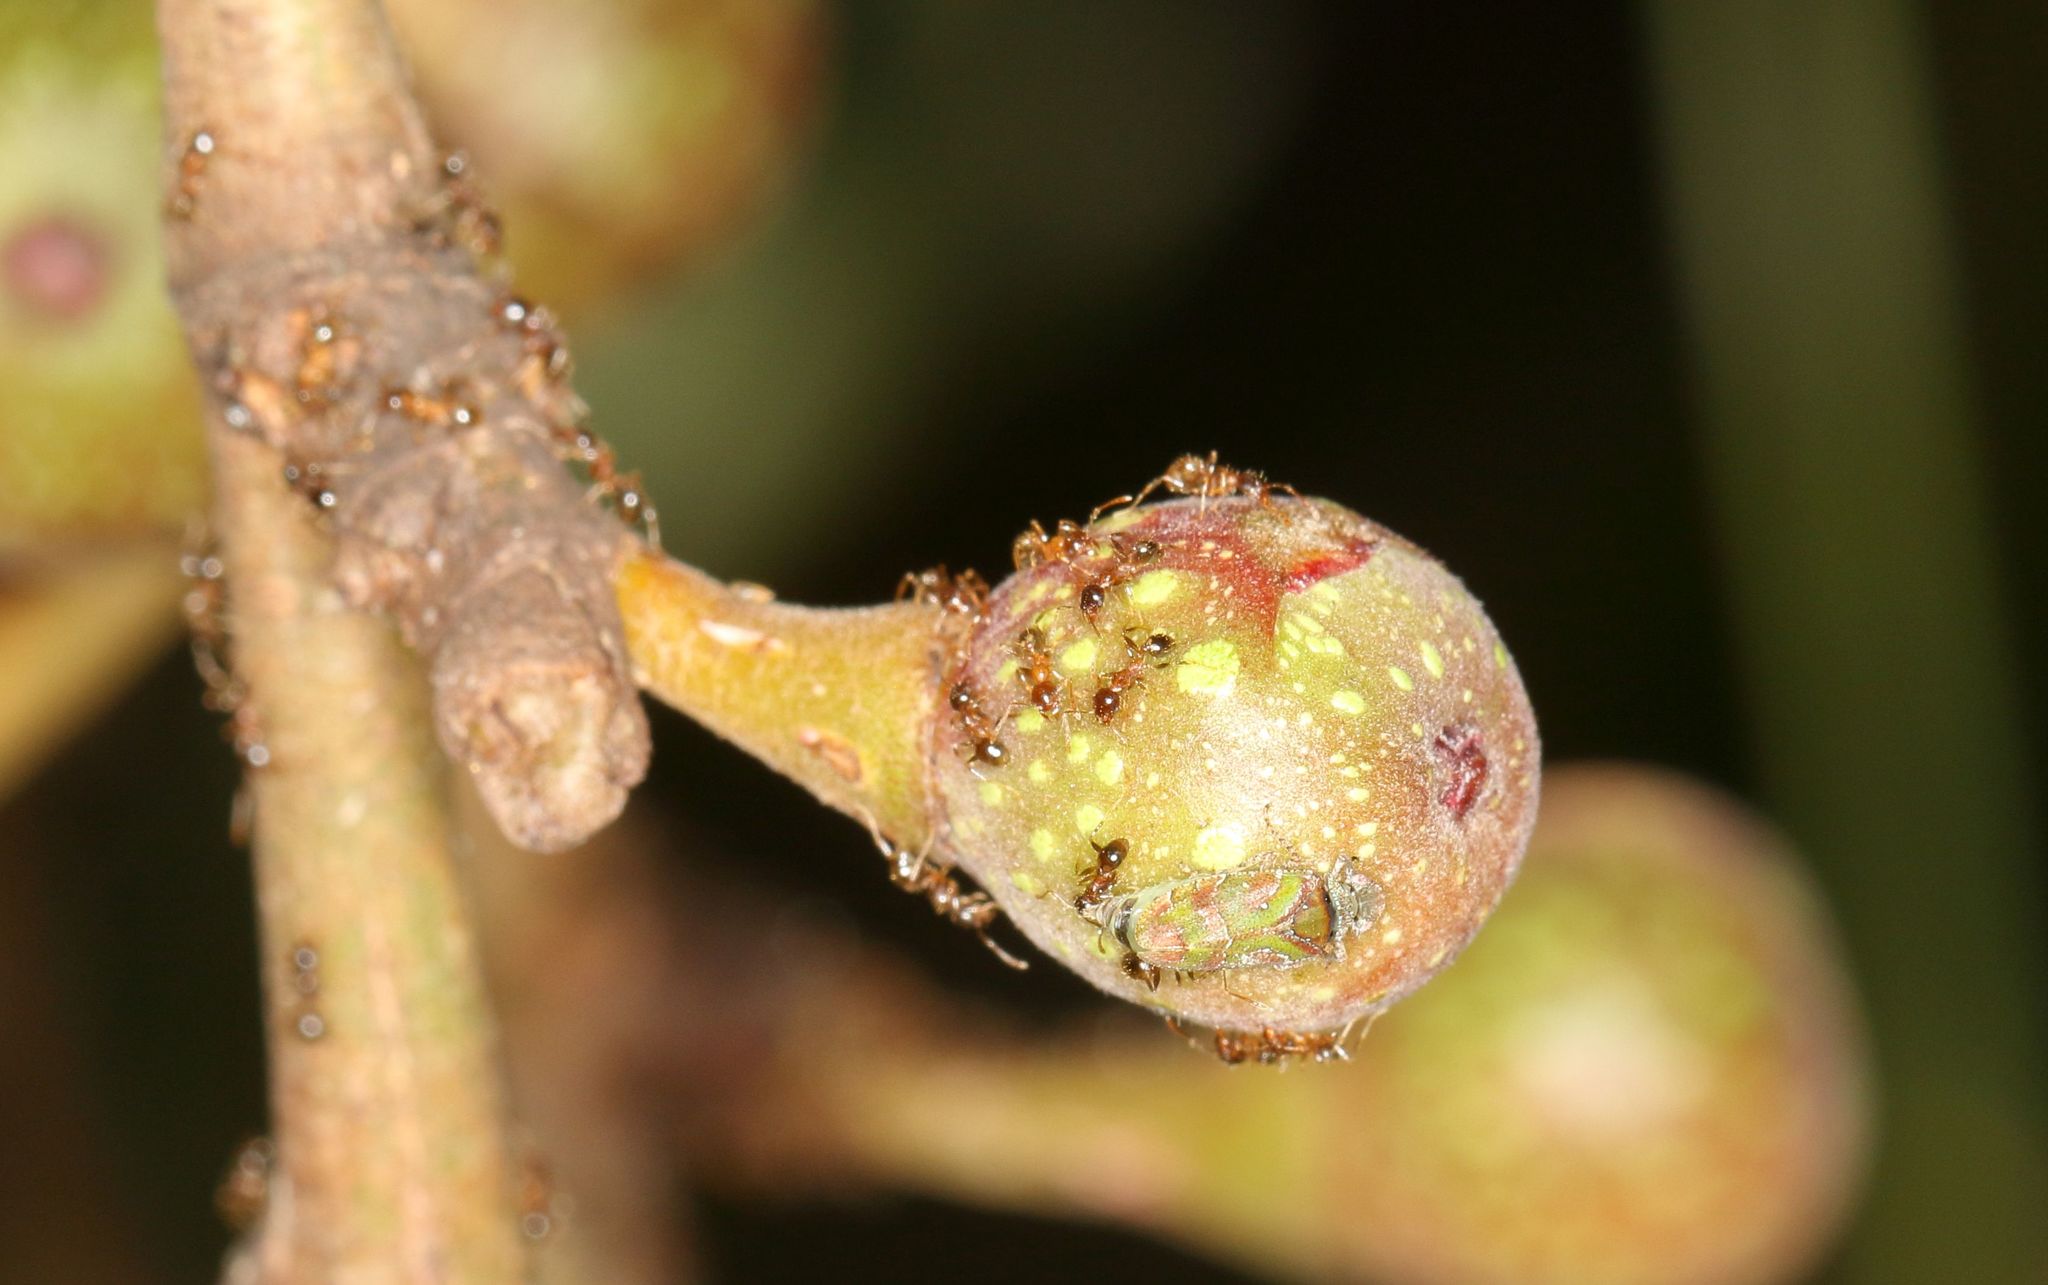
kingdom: Plantae
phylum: Tracheophyta
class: Magnoliopsida
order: Rosales
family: Moraceae
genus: Ficus
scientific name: Ficus sur
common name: Cape fig
